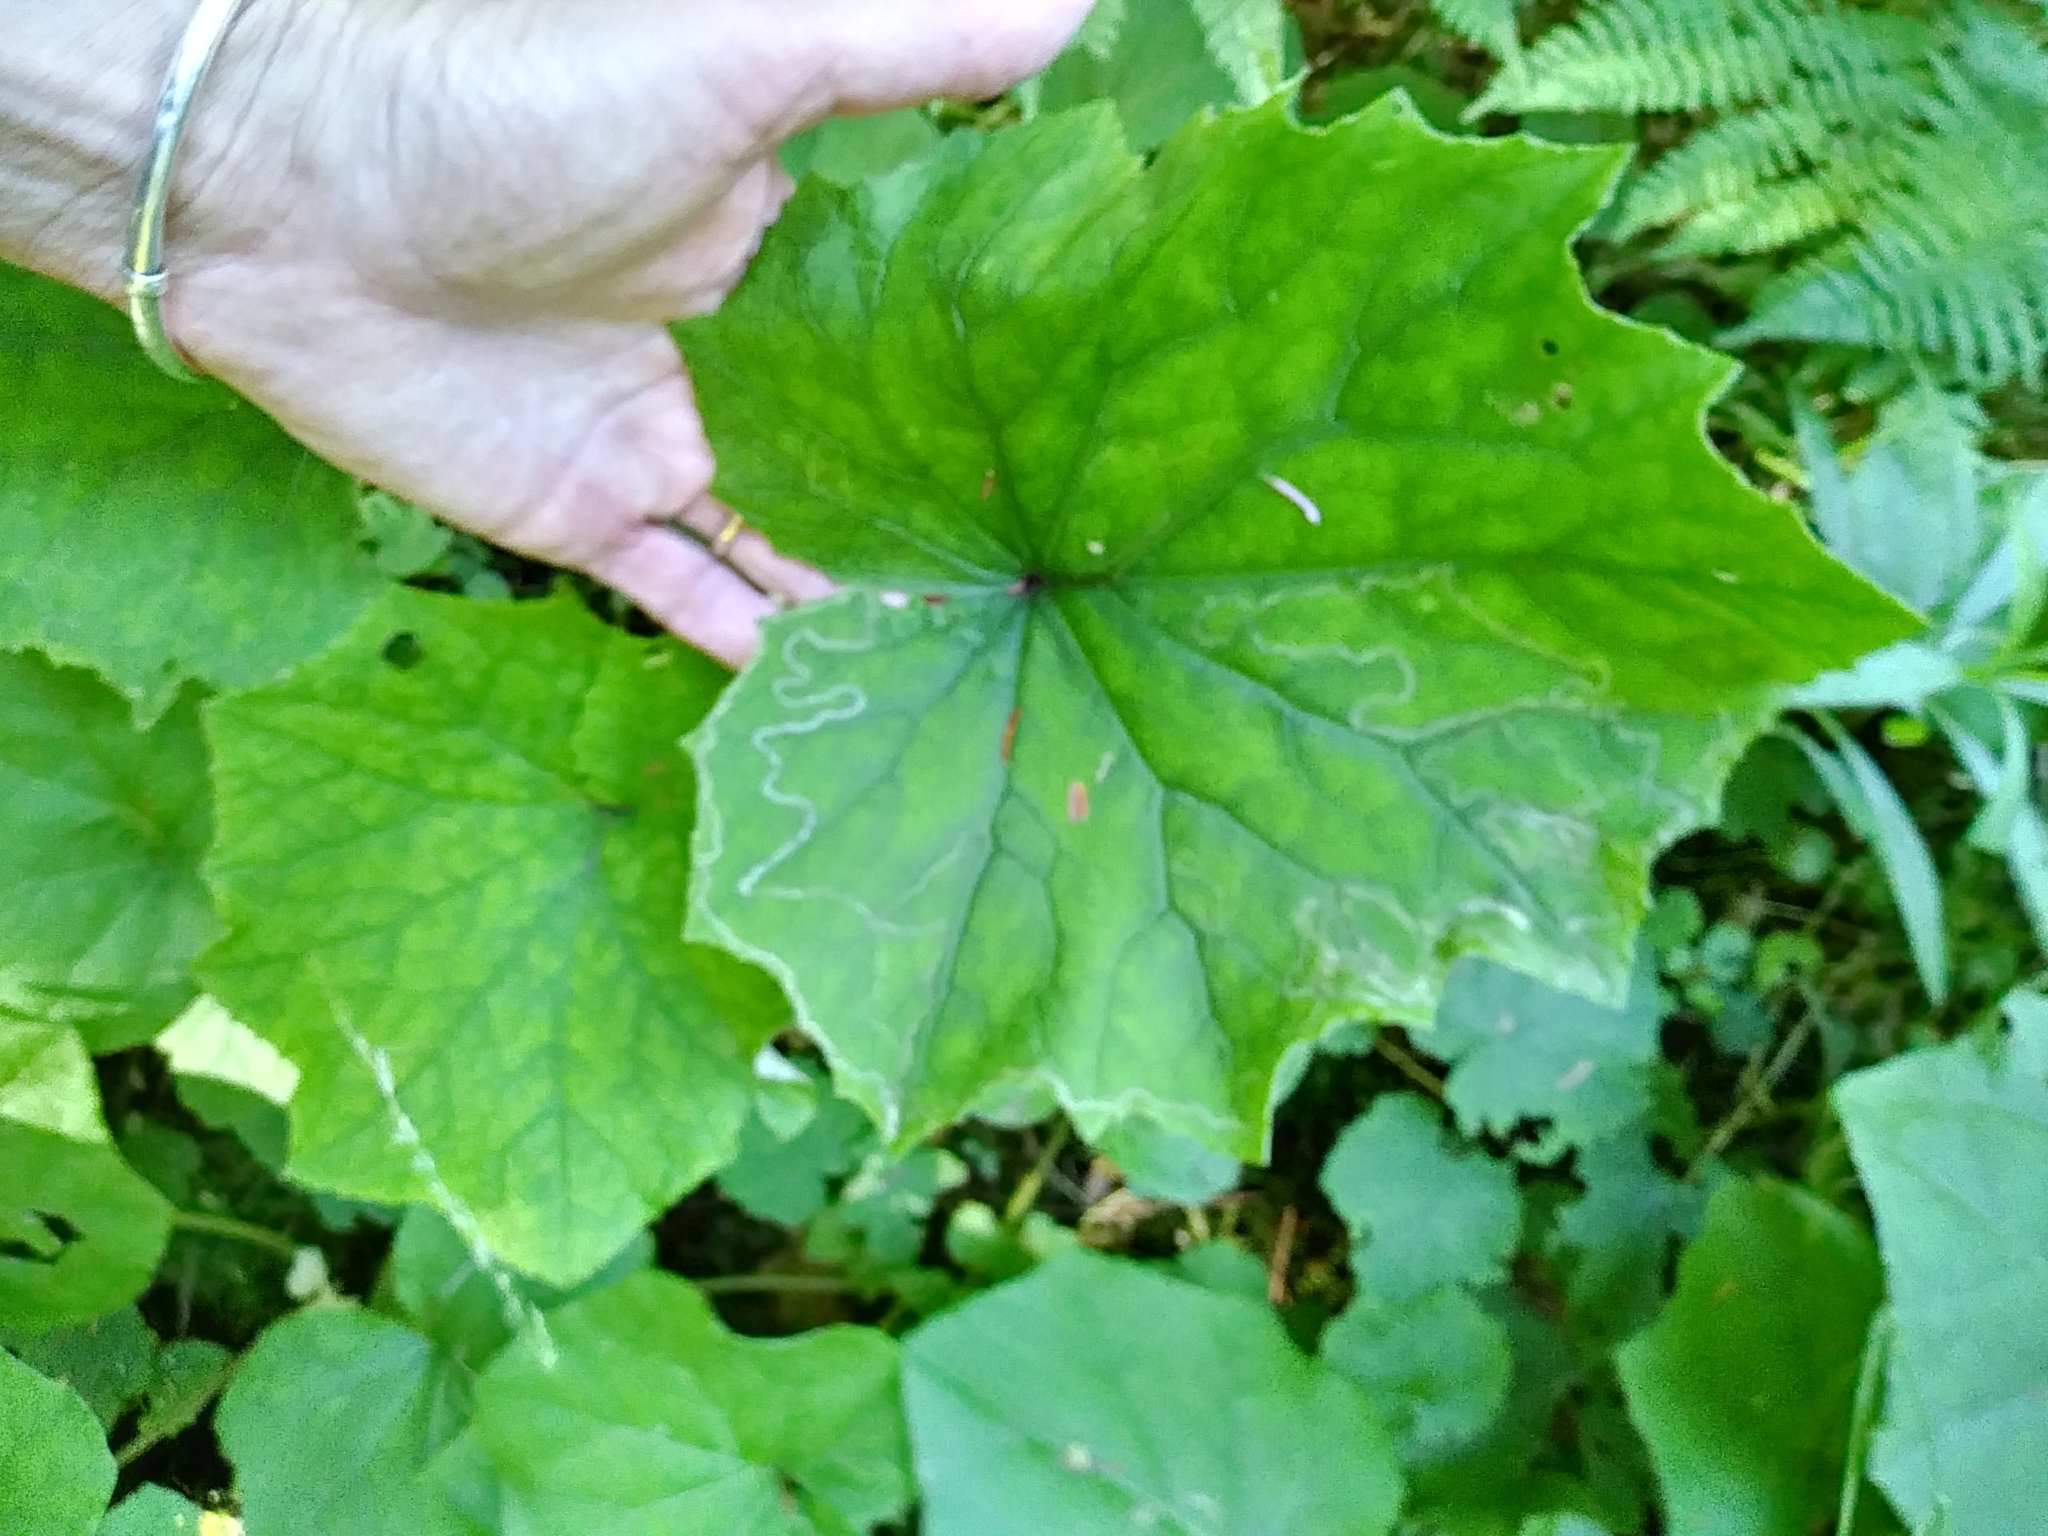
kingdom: Plantae
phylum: Tracheophyta
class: Magnoliopsida
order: Asterales
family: Asteraceae
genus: Tussilago
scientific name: Tussilago farfara
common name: Coltsfoot
